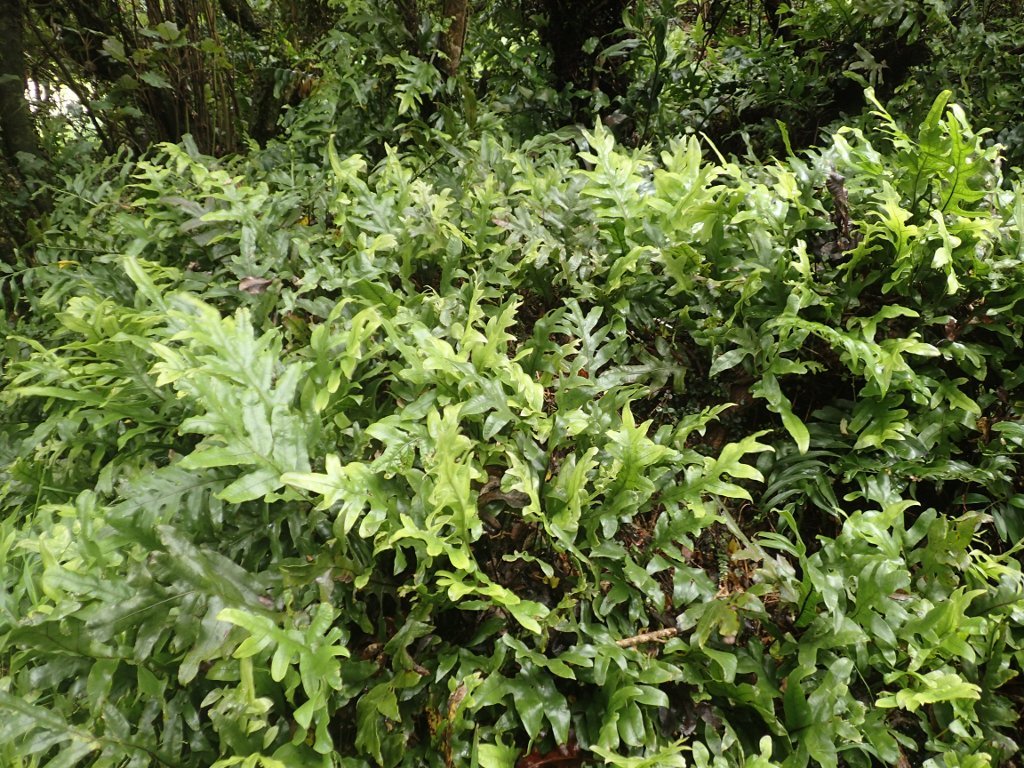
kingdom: Plantae
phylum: Tracheophyta
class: Polypodiopsida
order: Polypodiales
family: Polypodiaceae
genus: Lecanopteris
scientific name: Lecanopteris pustulata
